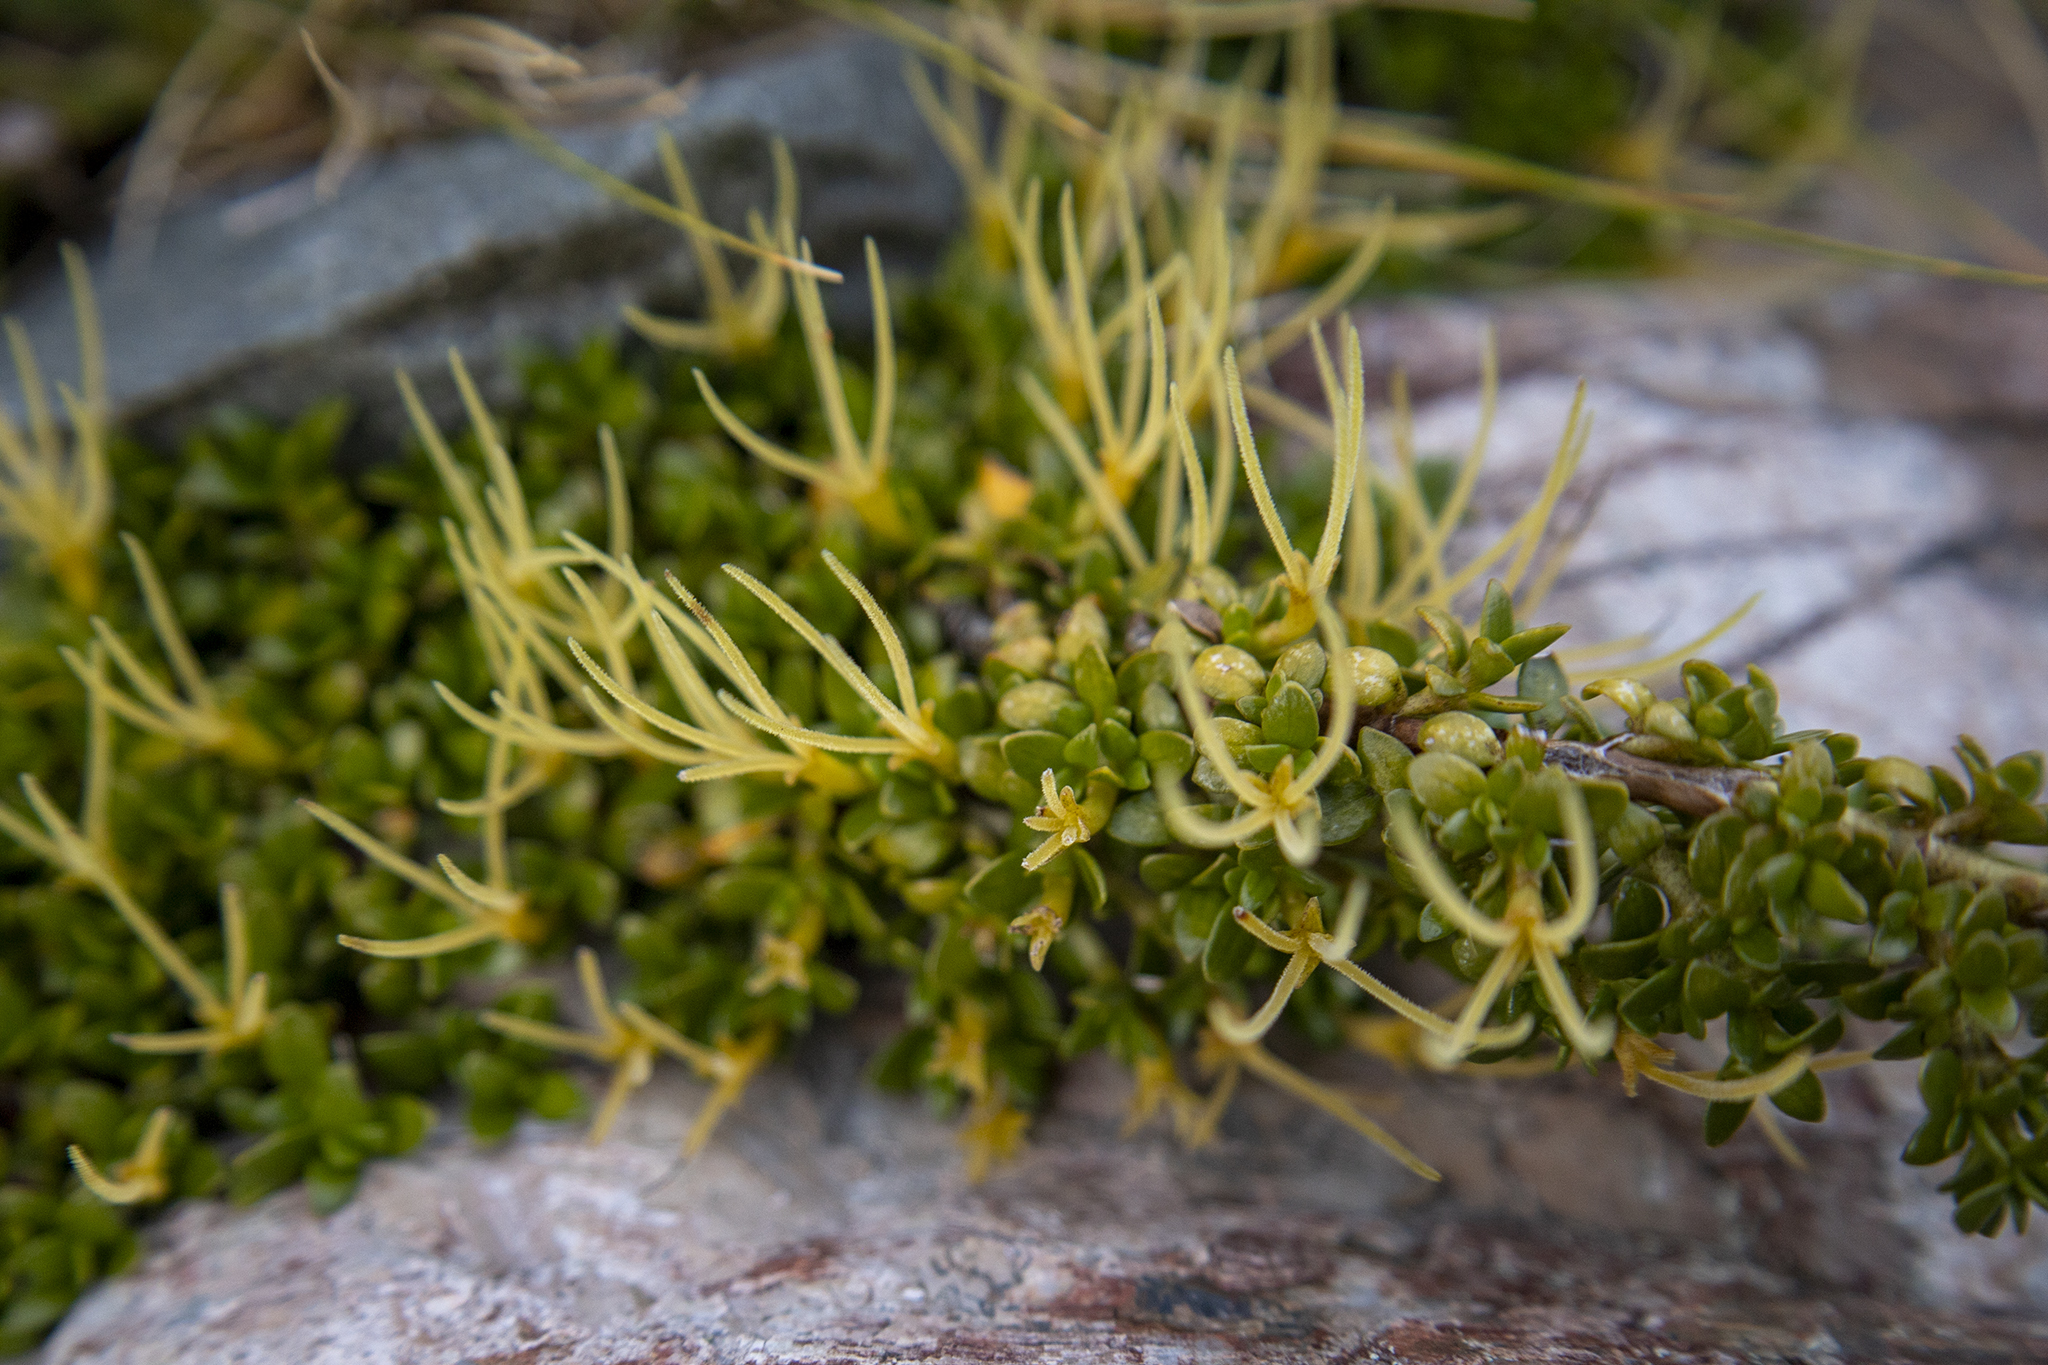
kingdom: Plantae
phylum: Tracheophyta
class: Magnoliopsida
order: Gentianales
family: Rubiaceae
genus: Coprosma
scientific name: Coprosma perpusilla
